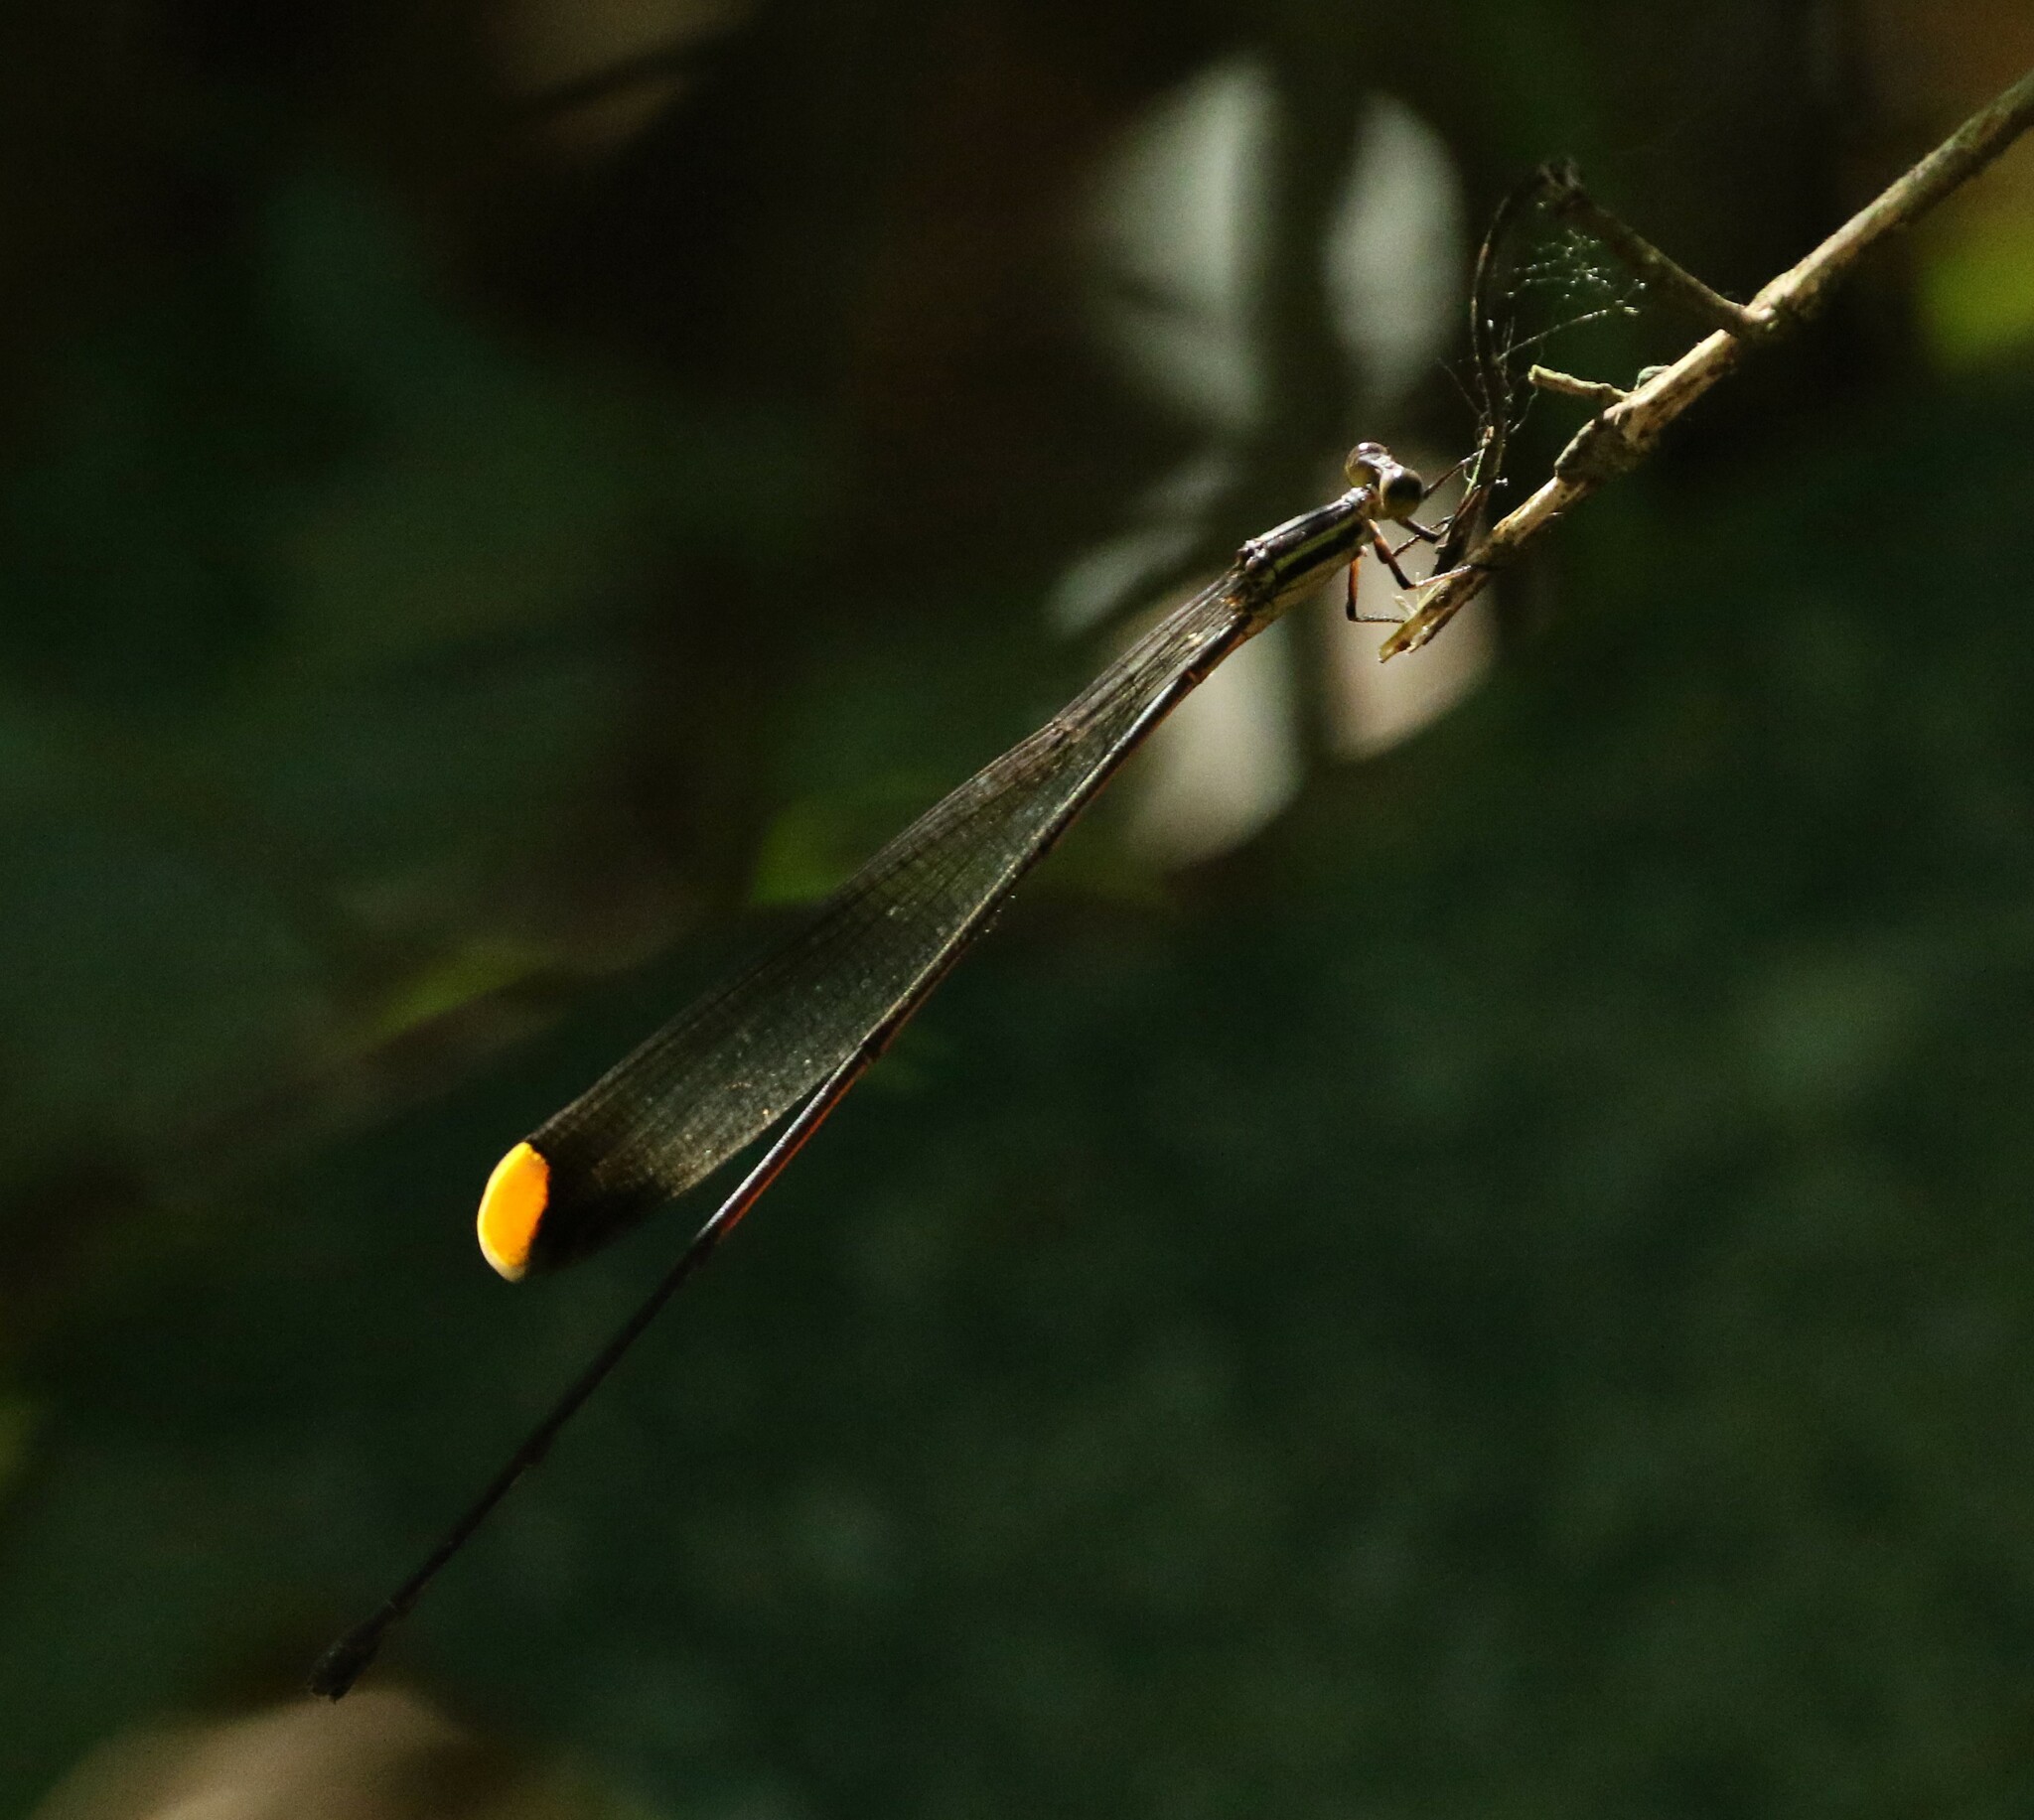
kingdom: Animalia
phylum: Arthropoda
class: Insecta
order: Odonata
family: Coenagrionidae
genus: Mecistogaster
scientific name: Mecistogaster ornata
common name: Ornate helicopter
